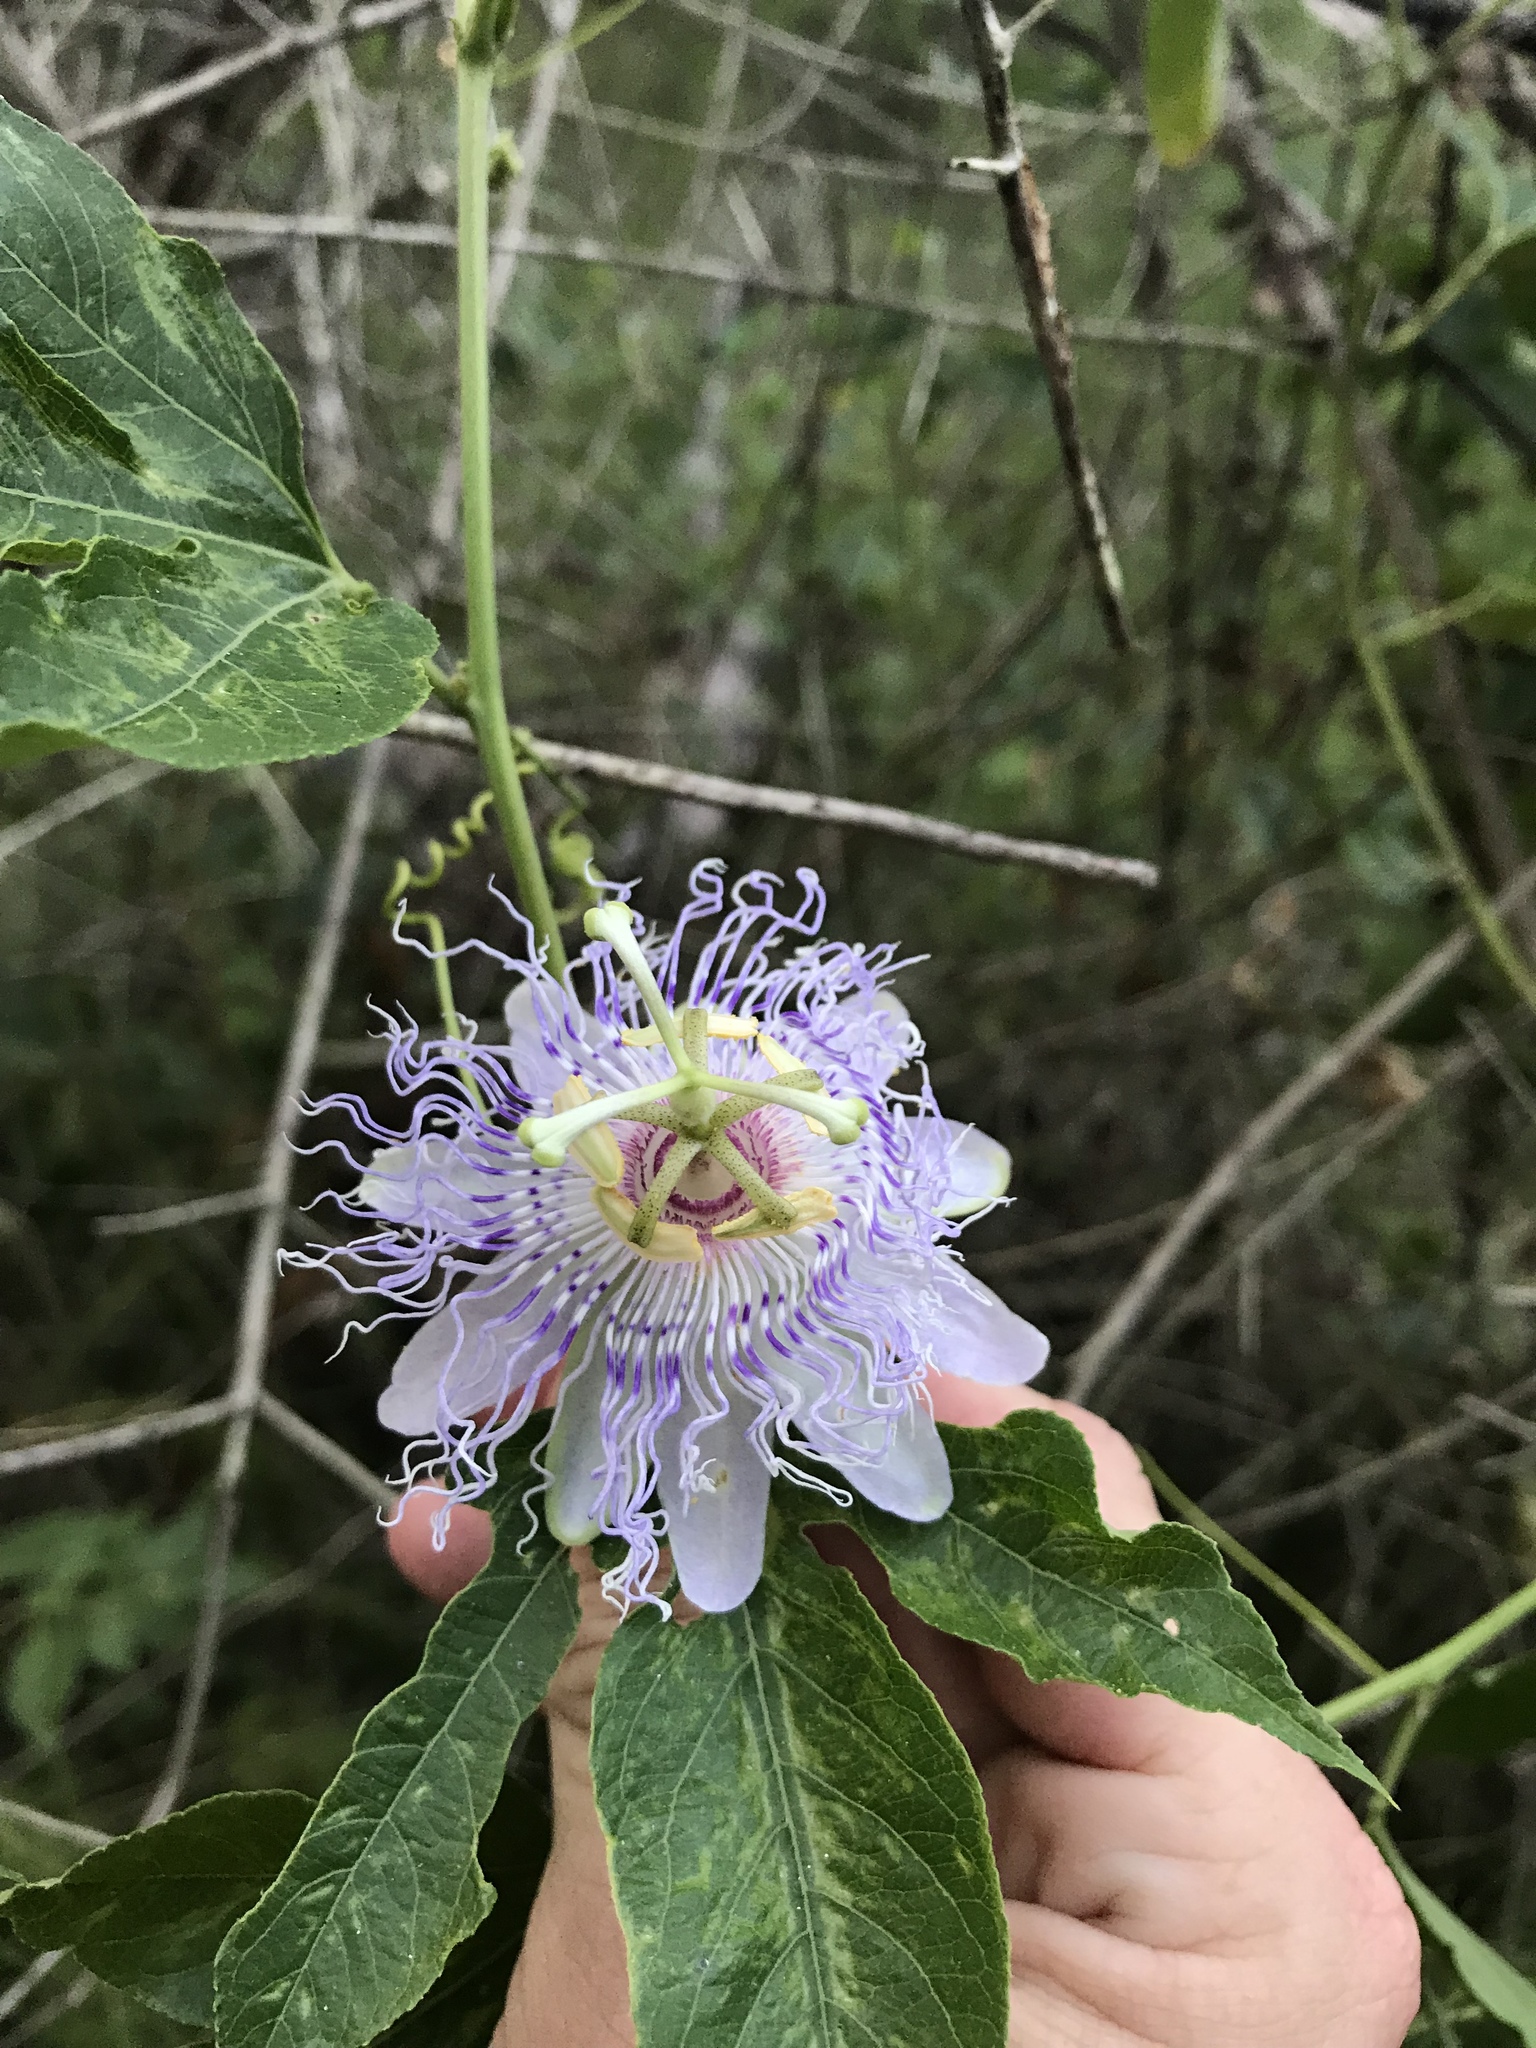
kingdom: Plantae
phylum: Tracheophyta
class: Magnoliopsida
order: Malpighiales
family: Passifloraceae
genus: Passiflora
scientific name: Passiflora incarnata
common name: Apricot-vine
